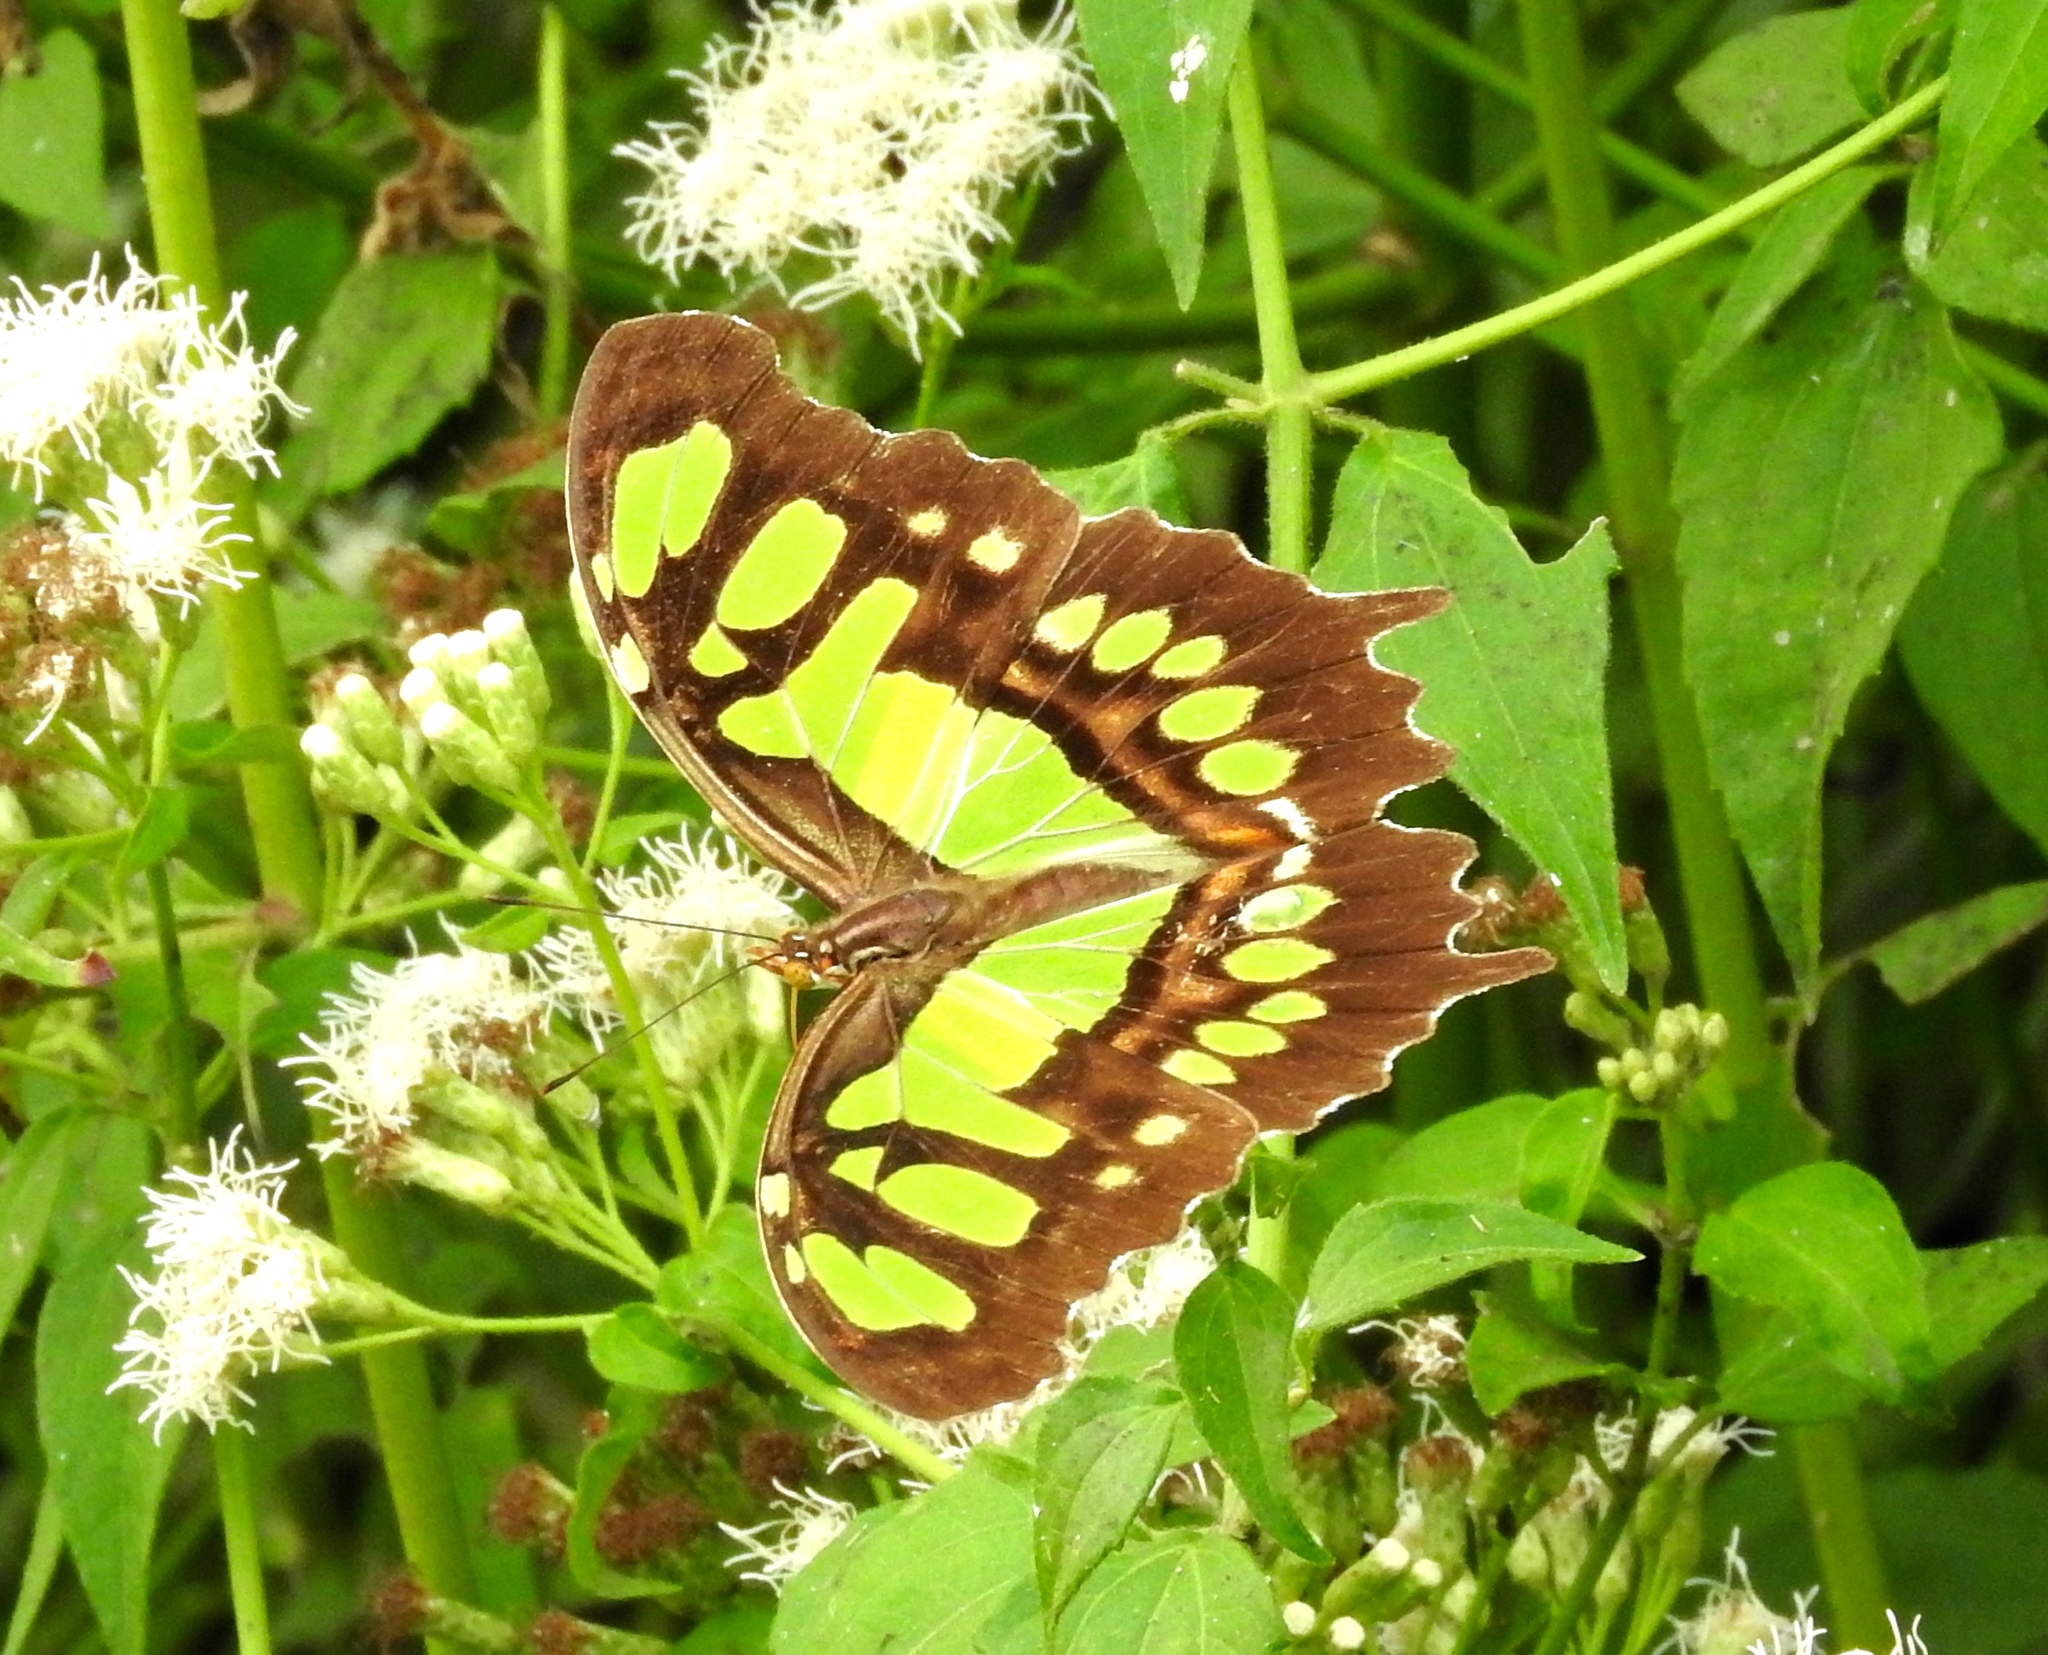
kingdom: Animalia
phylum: Arthropoda
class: Insecta
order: Lepidoptera
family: Nymphalidae
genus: Siproeta
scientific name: Siproeta stelenes
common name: Malachite
